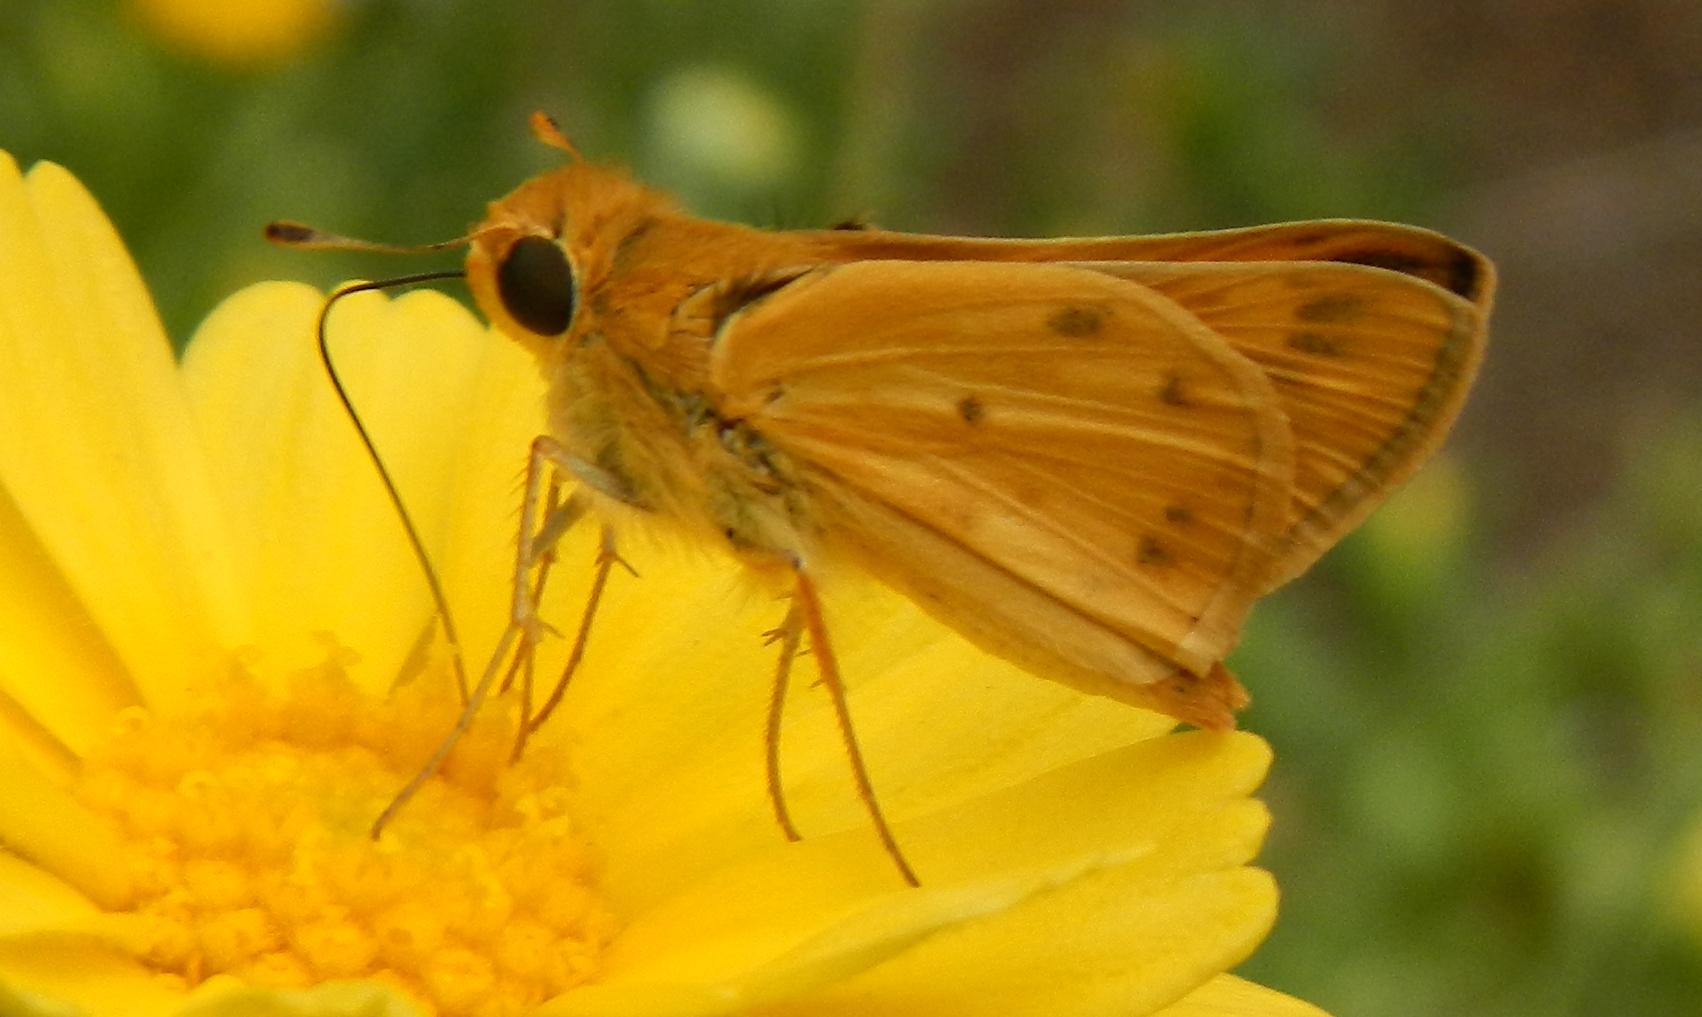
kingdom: Animalia
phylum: Arthropoda
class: Insecta
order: Lepidoptera
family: Hesperiidae
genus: Hylephila
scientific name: Hylephila phyleus
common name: Fiery skipper
